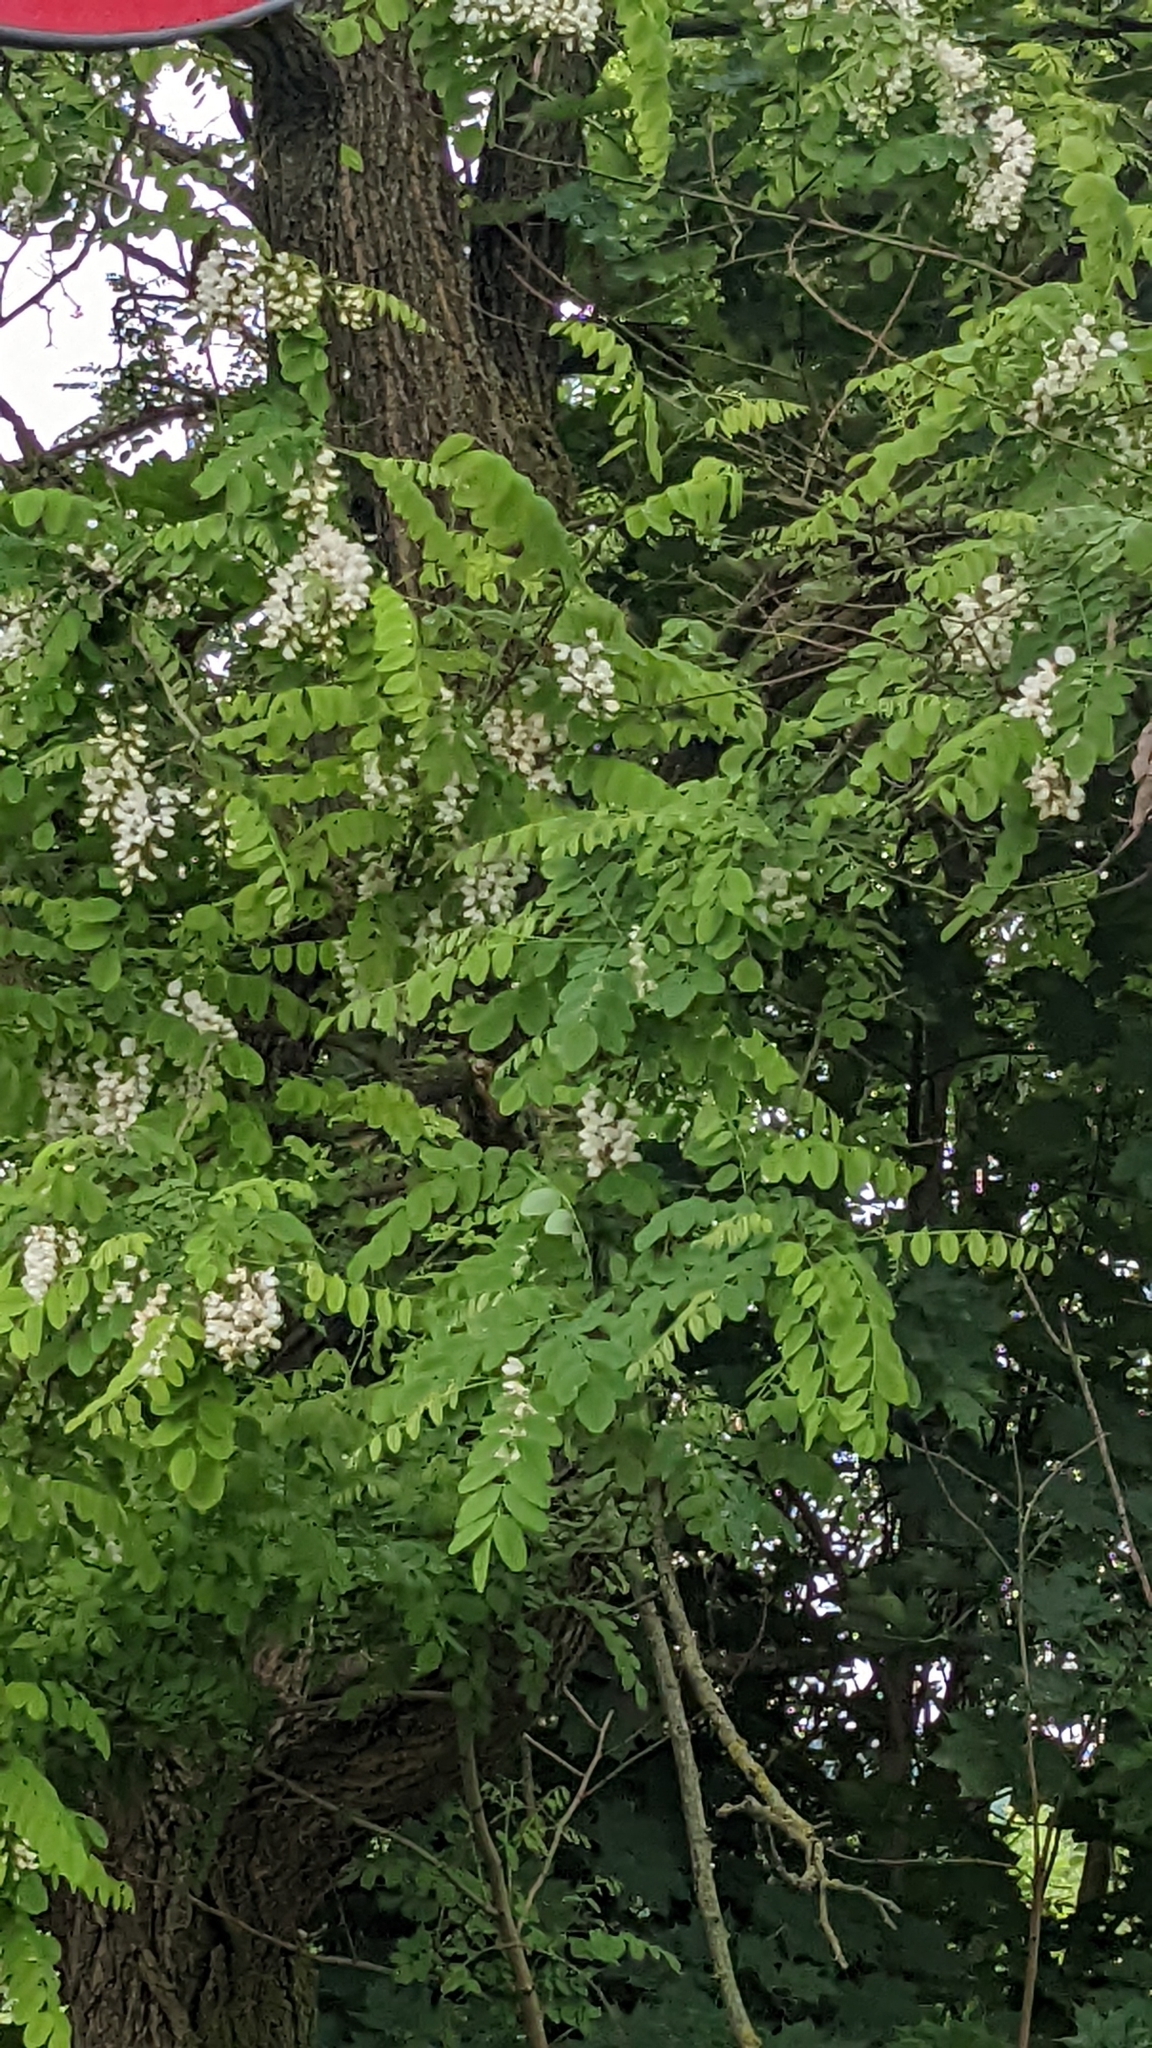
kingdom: Plantae
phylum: Tracheophyta
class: Magnoliopsida
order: Fabales
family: Fabaceae
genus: Robinia
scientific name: Robinia pseudoacacia
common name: Black locust
